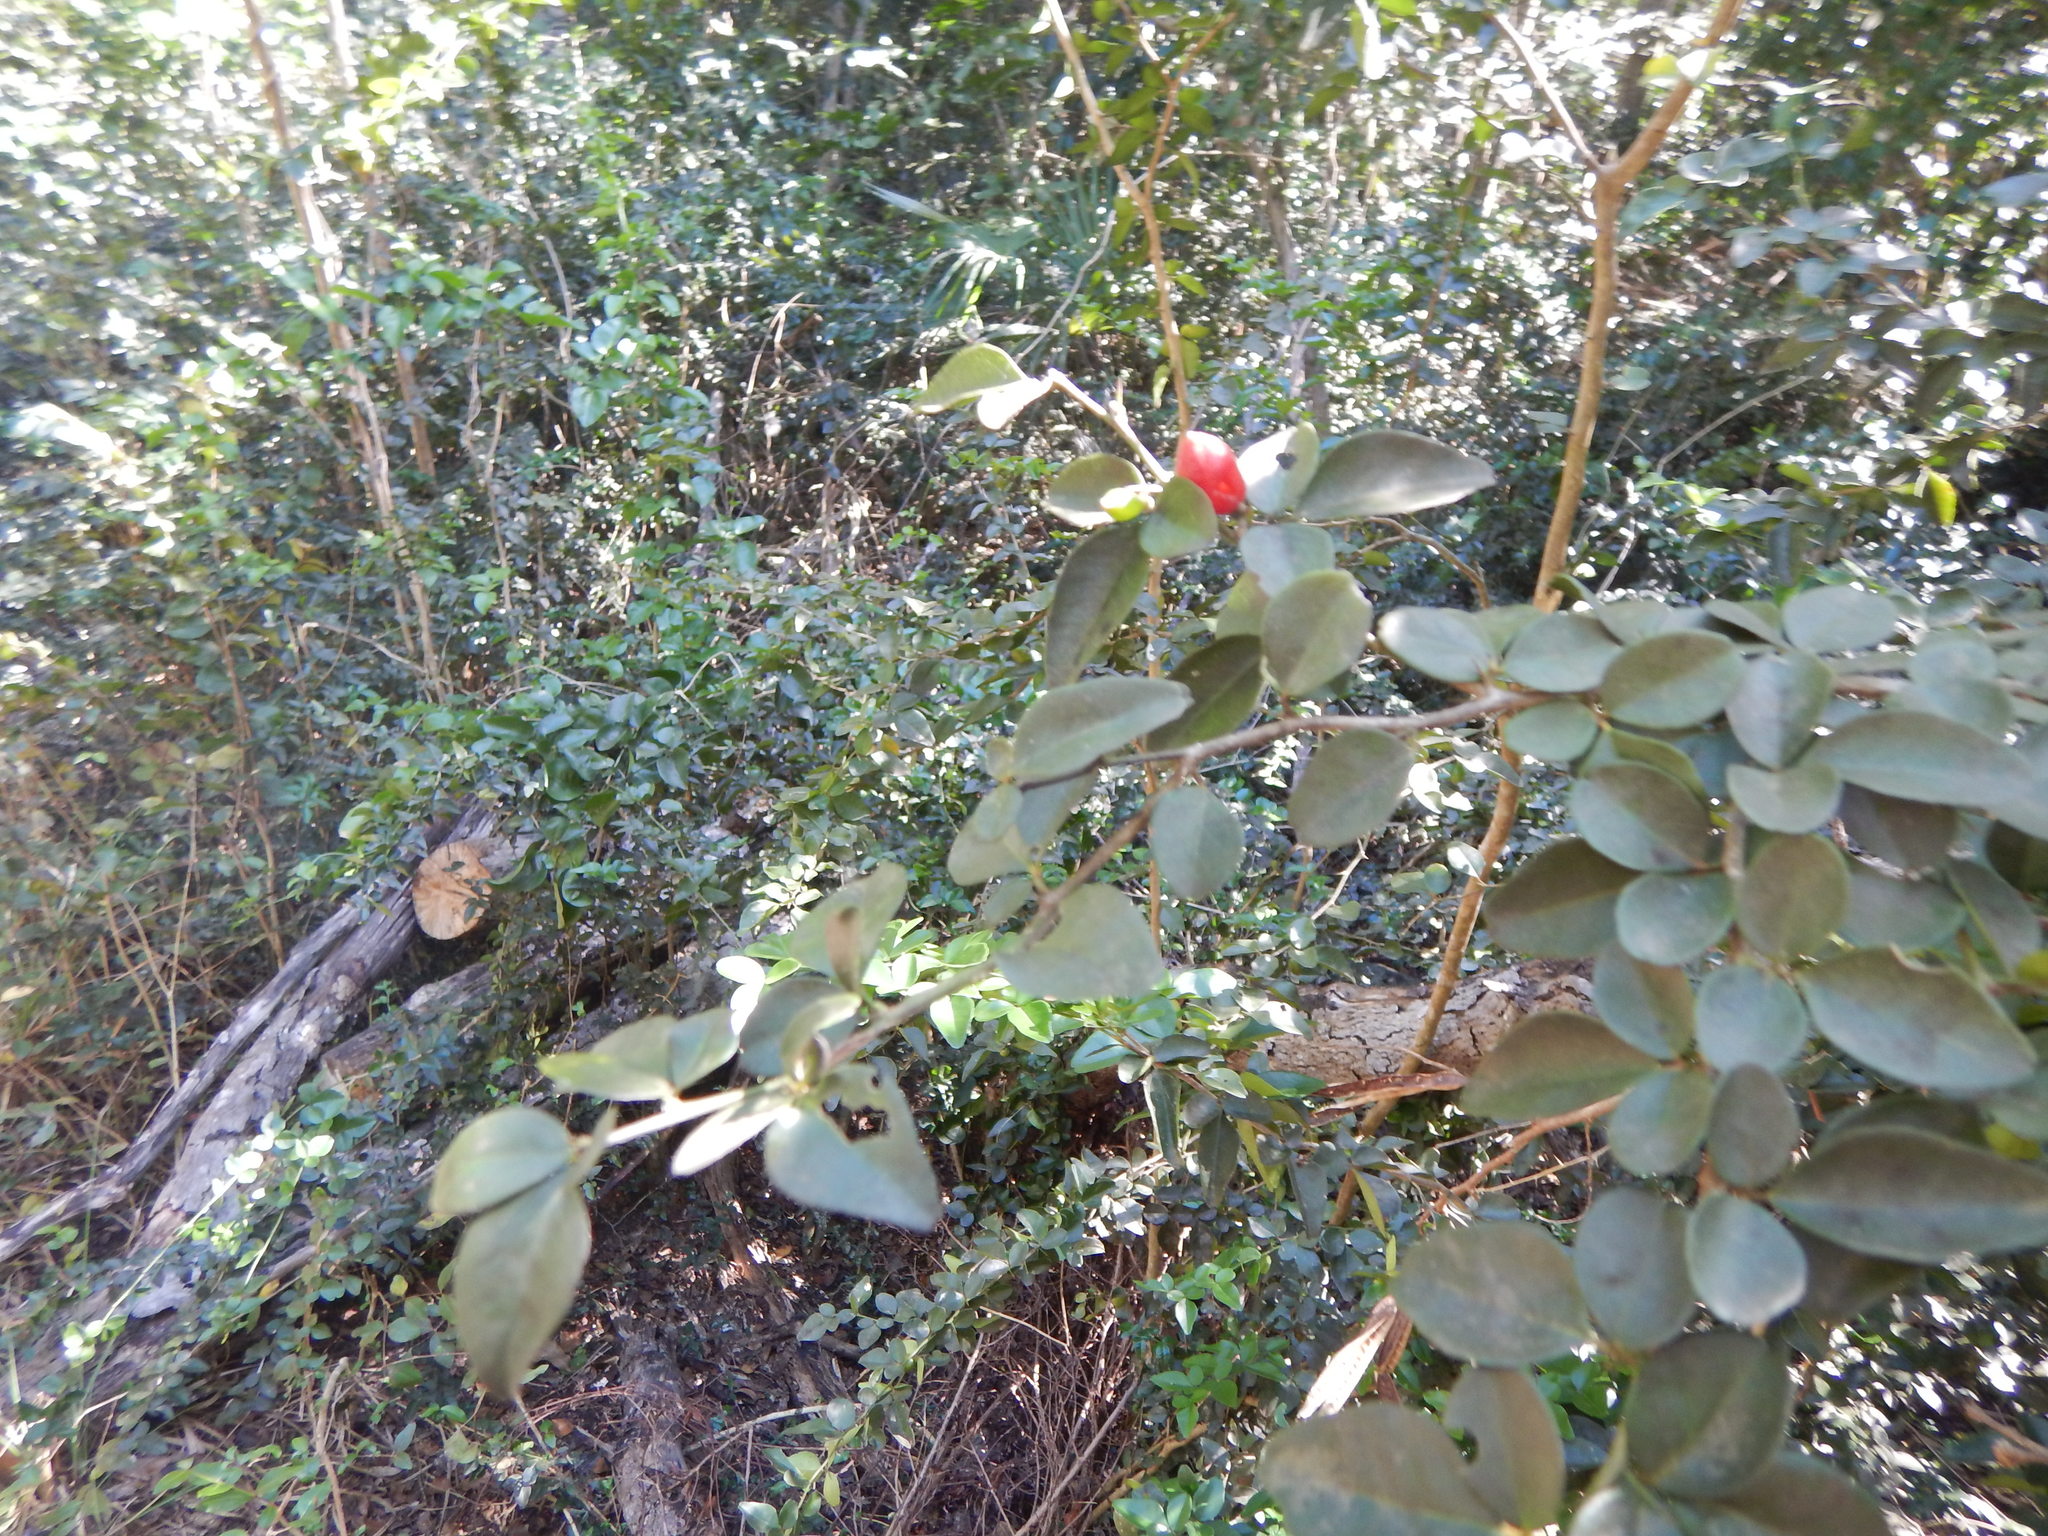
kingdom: Plantae
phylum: Tracheophyta
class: Magnoliopsida
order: Sapindales
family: Rutaceae
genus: Triphasia
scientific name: Triphasia trifolia
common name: Limeberry
